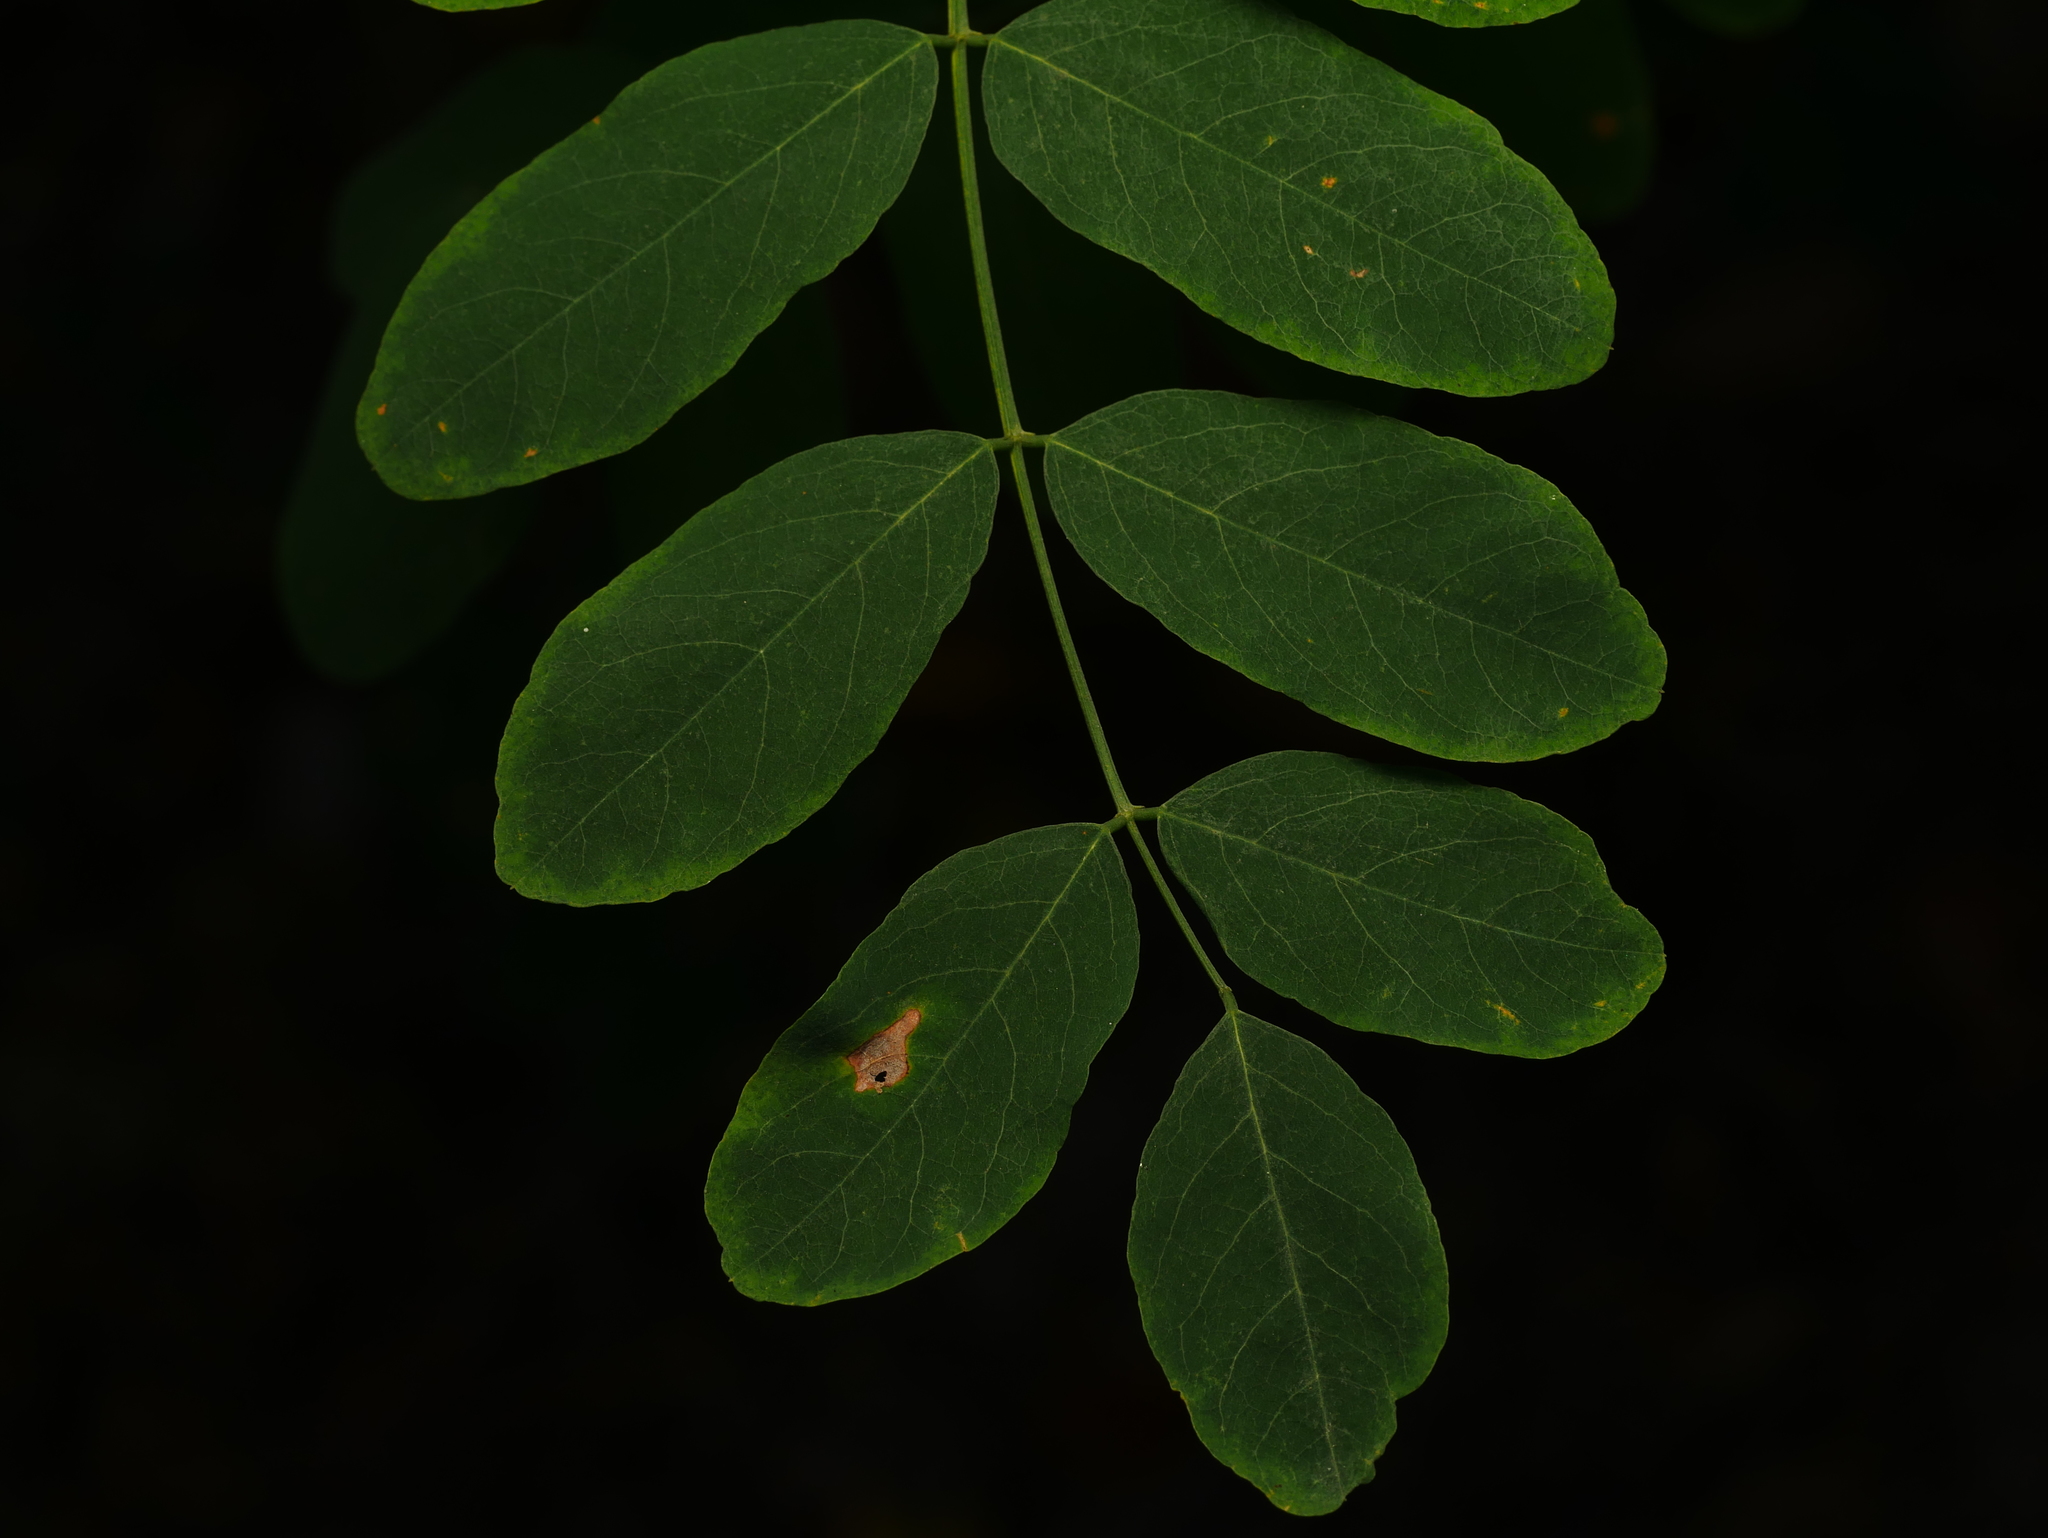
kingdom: Plantae
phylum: Tracheophyta
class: Magnoliopsida
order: Fabales
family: Fabaceae
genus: Robinia
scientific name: Robinia pseudoacacia
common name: Black locust
